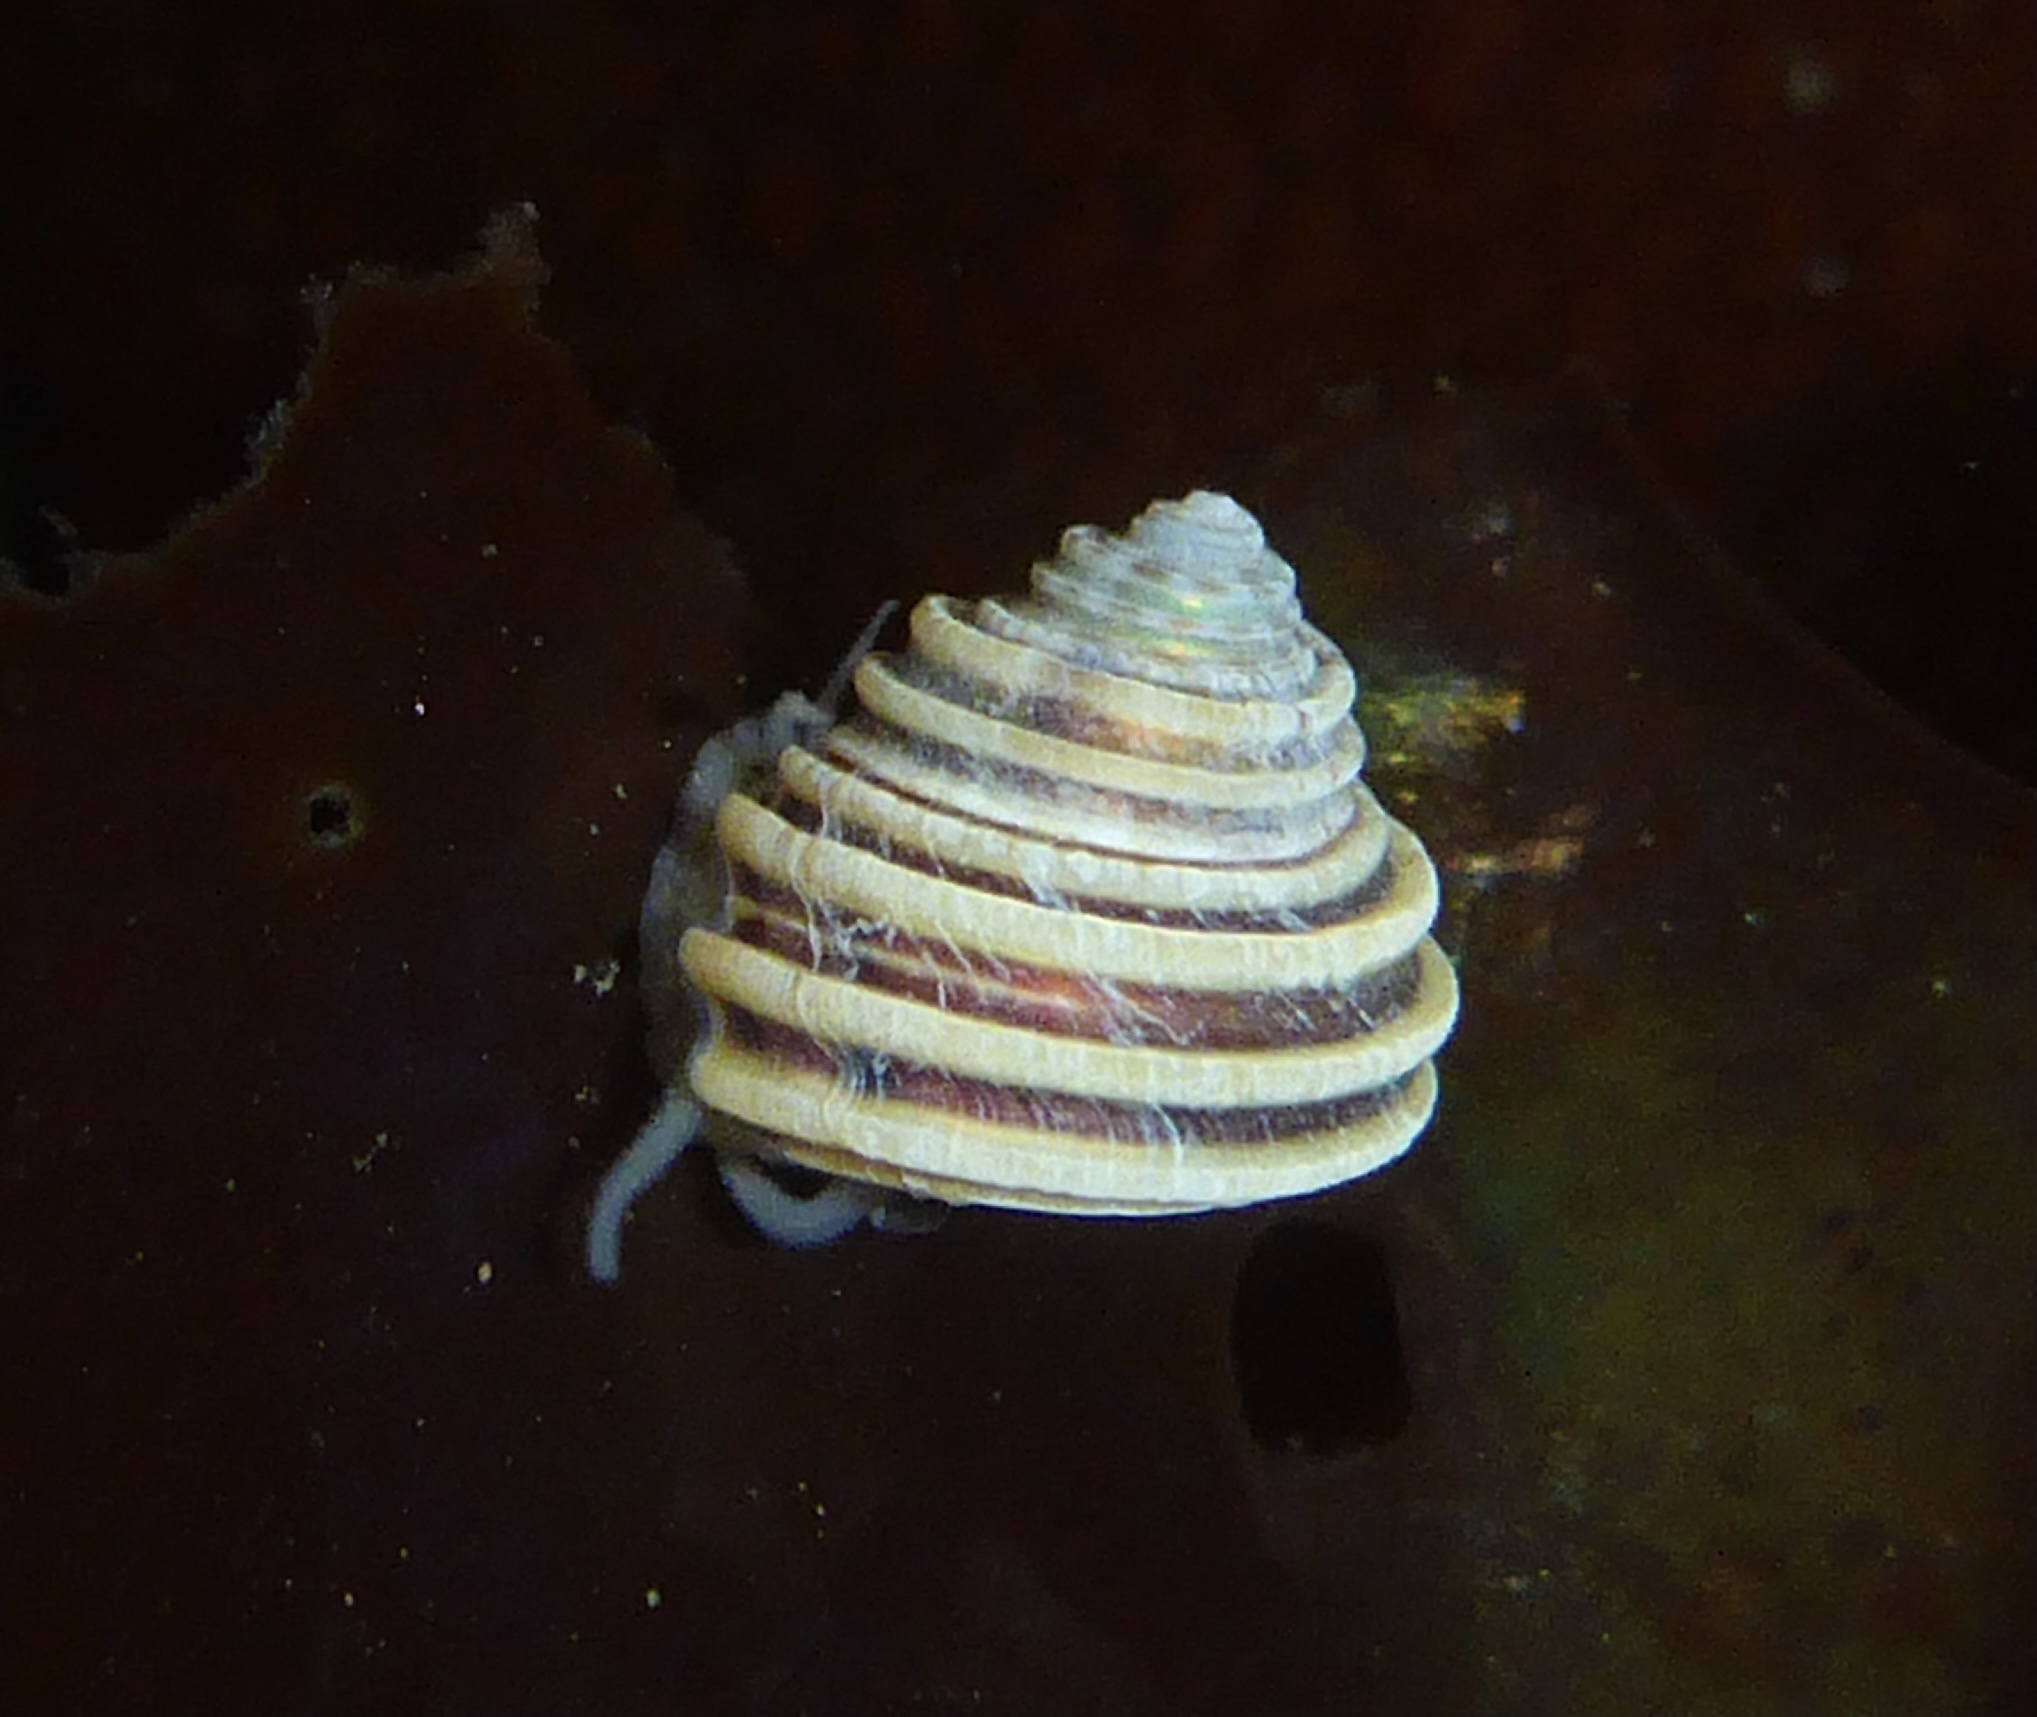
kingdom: Animalia
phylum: Mollusca
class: Gastropoda
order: Trochida
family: Calliostomatidae
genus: Calliostoma
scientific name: Calliostoma canaliculatum
